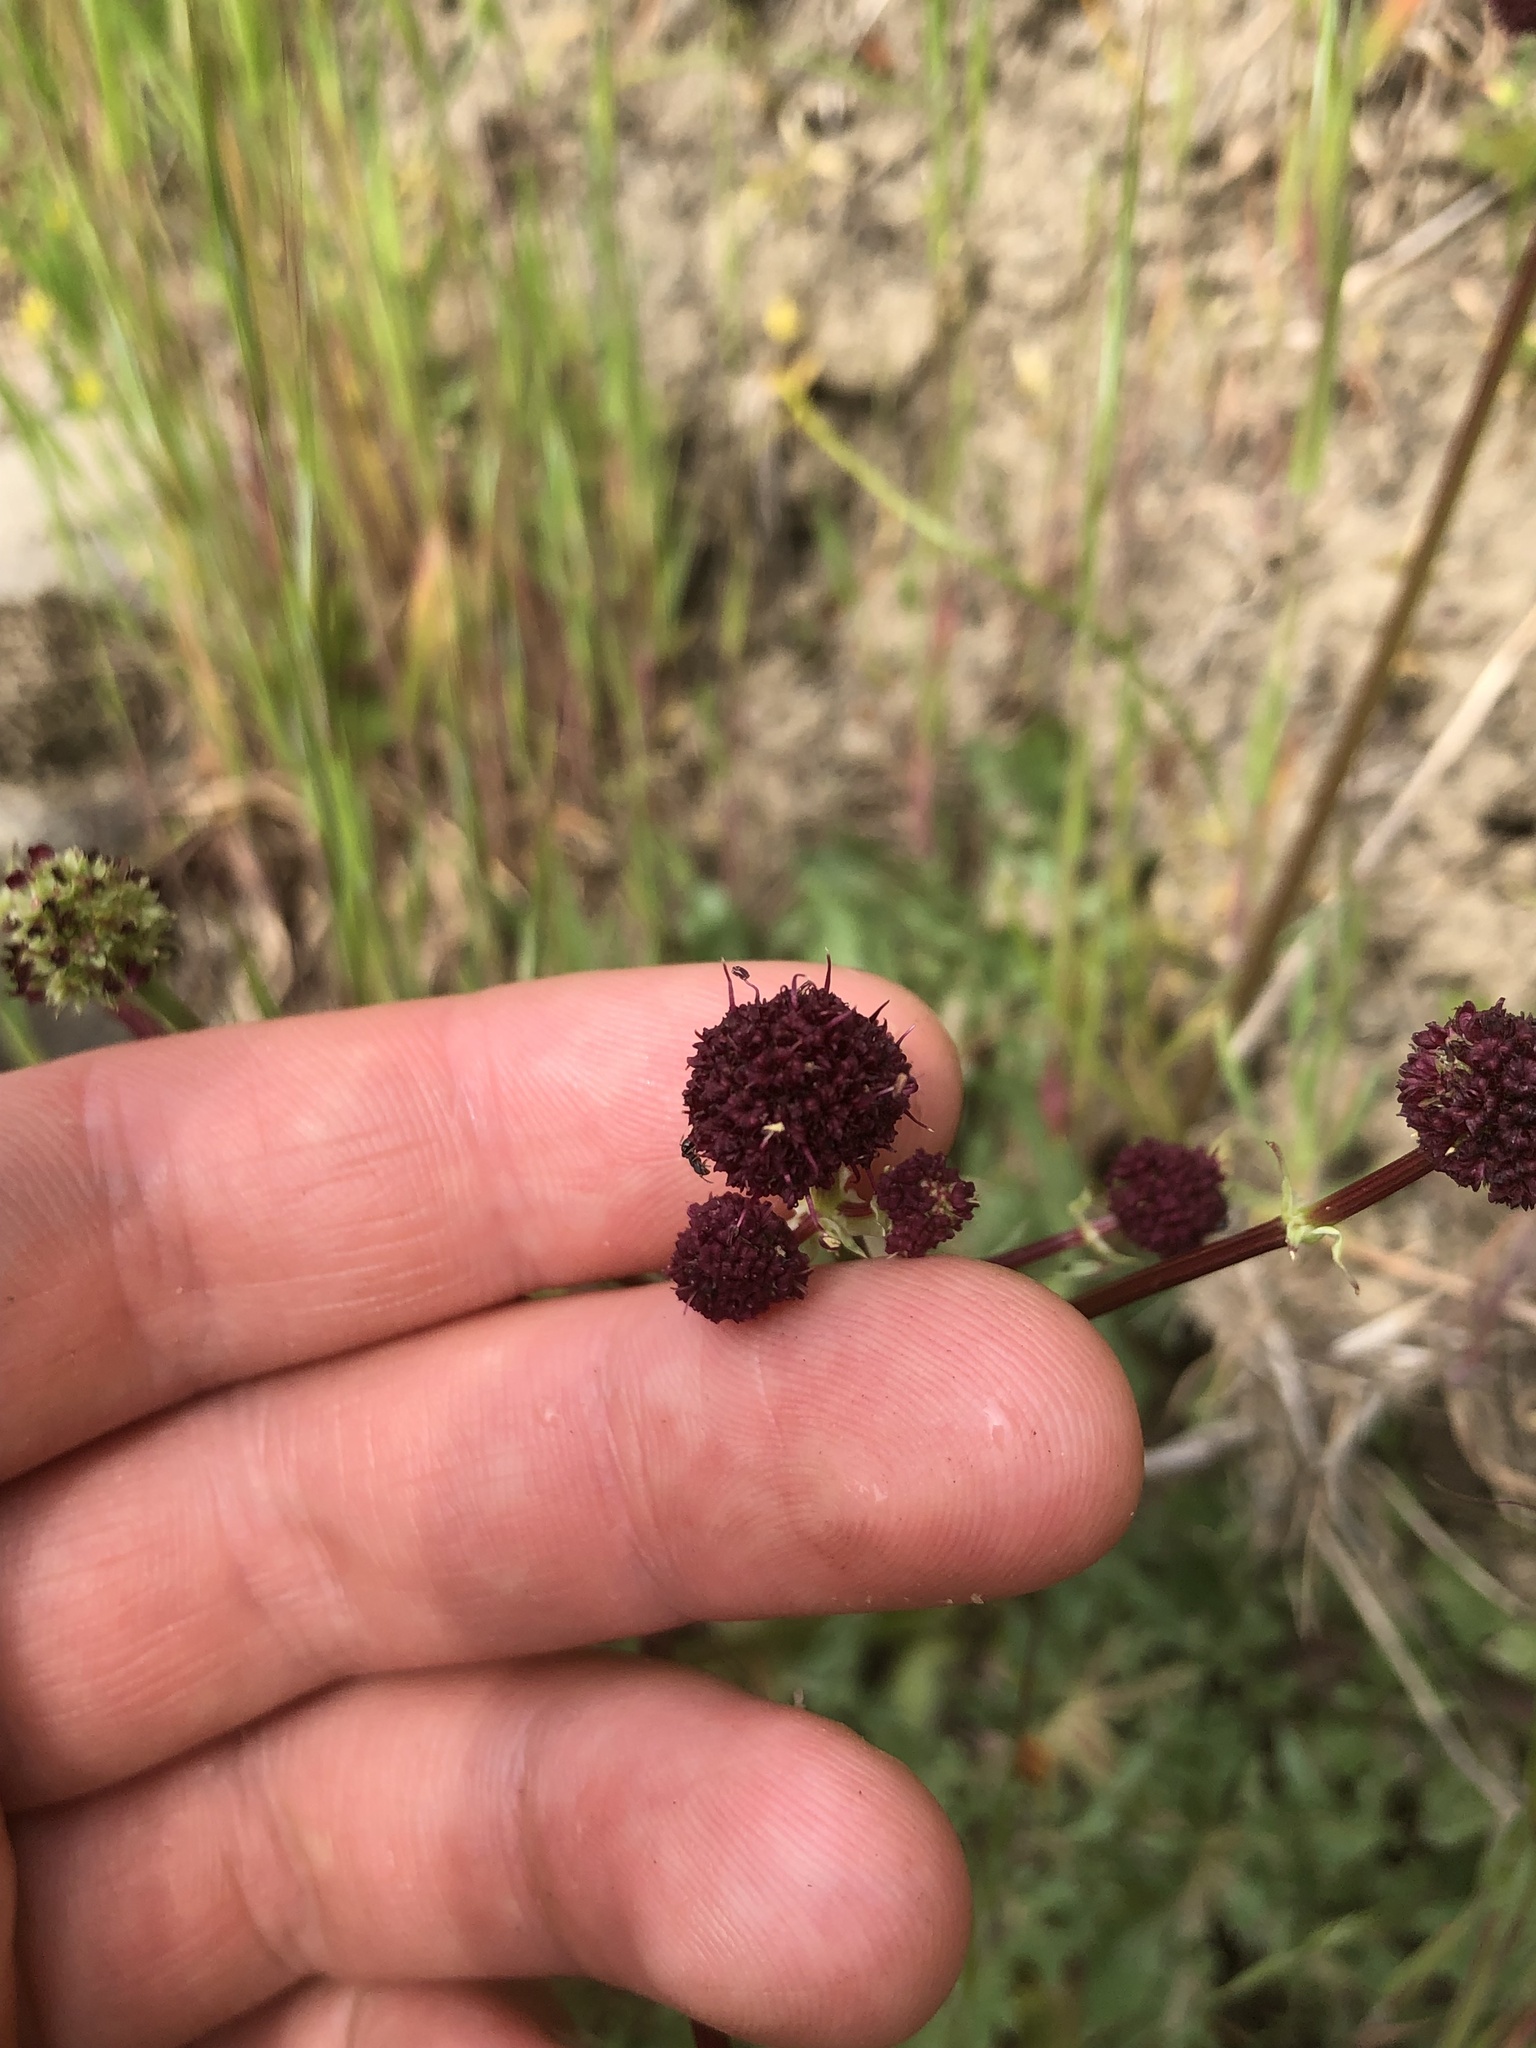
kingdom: Plantae
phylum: Tracheophyta
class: Magnoliopsida
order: Apiales
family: Apiaceae
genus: Sanicula
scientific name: Sanicula bipinnatifida
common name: Shoe-buttons
